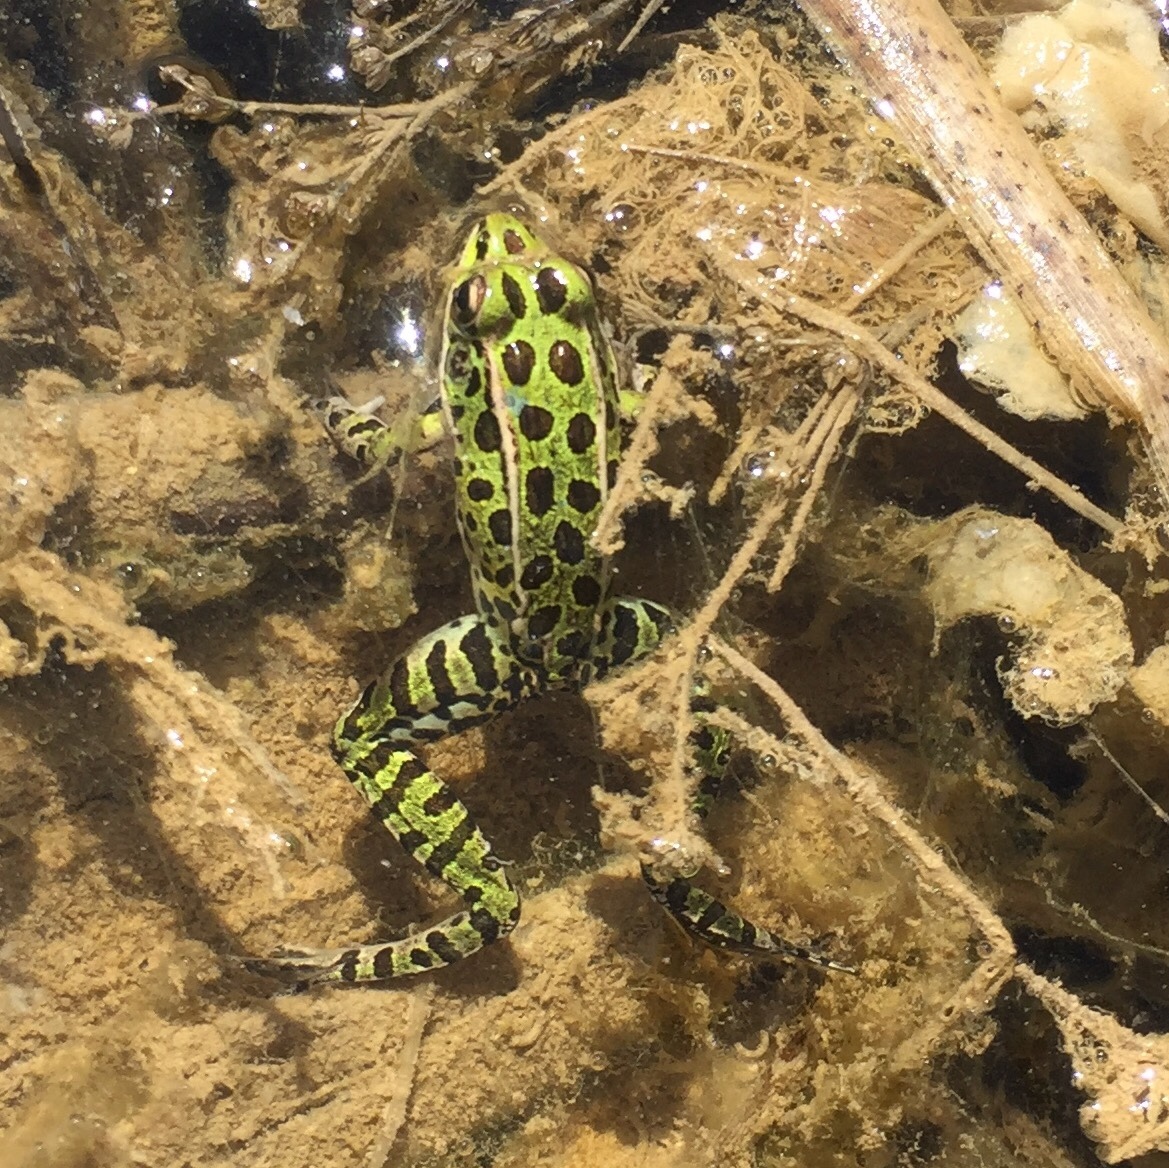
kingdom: Animalia
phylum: Chordata
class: Amphibia
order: Anura
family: Ranidae
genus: Lithobates
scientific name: Lithobates pipiens
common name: Northern leopard frog
